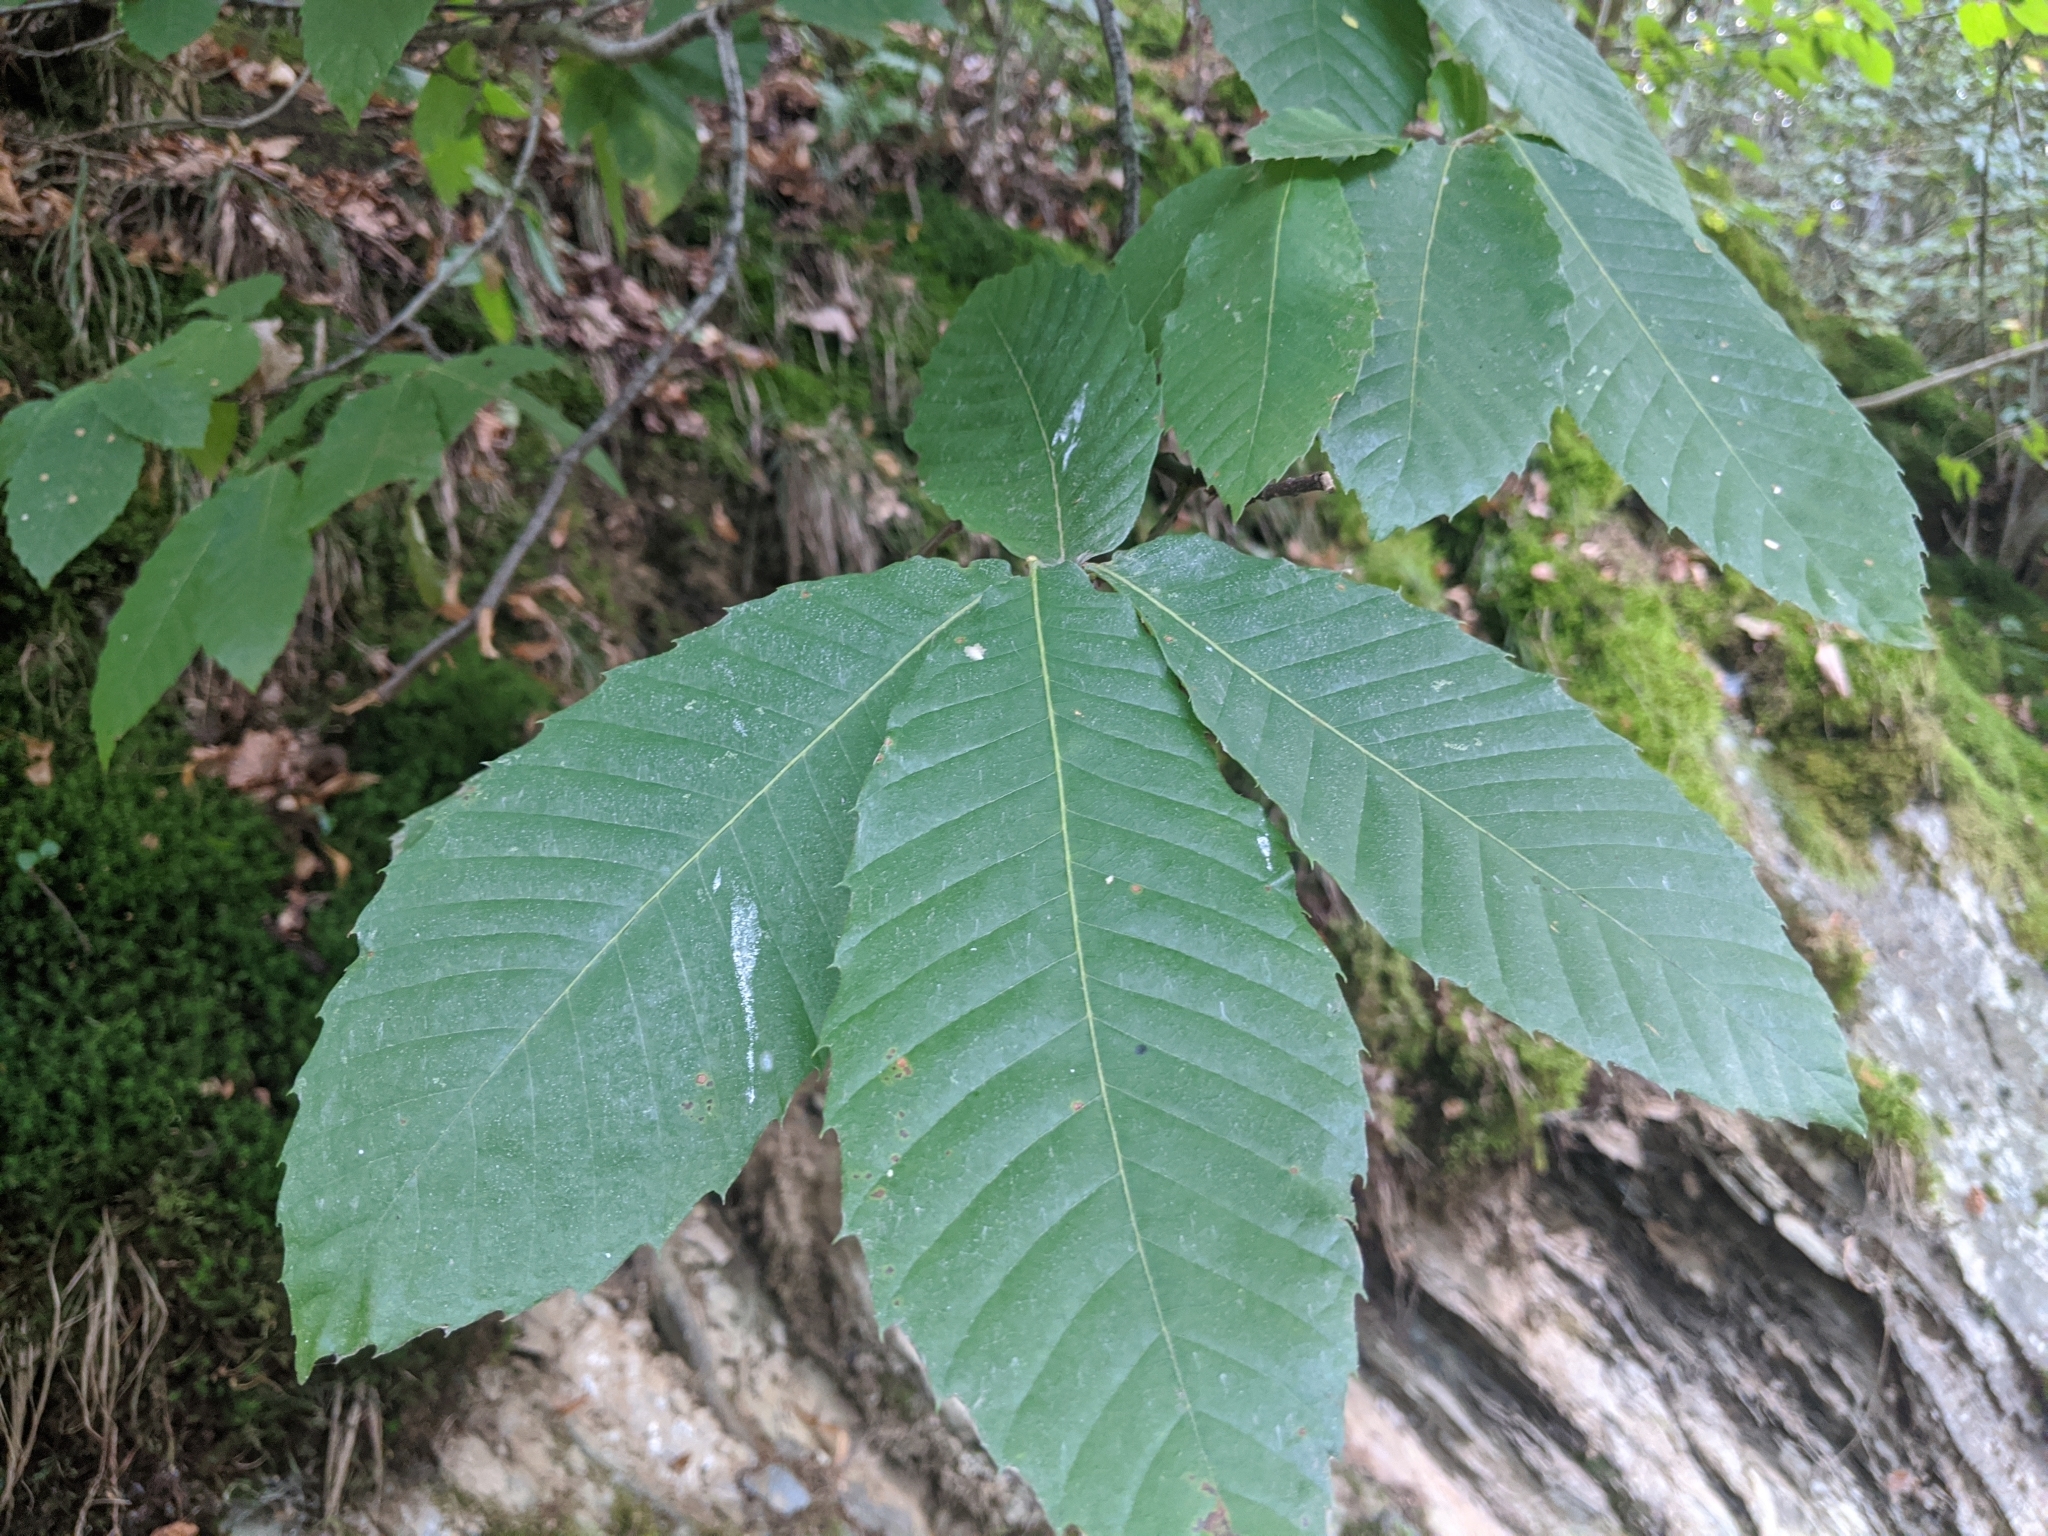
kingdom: Plantae
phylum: Tracheophyta
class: Magnoliopsida
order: Fagales
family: Fagaceae
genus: Castanea
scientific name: Castanea sativa
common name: Sweet chestnut
